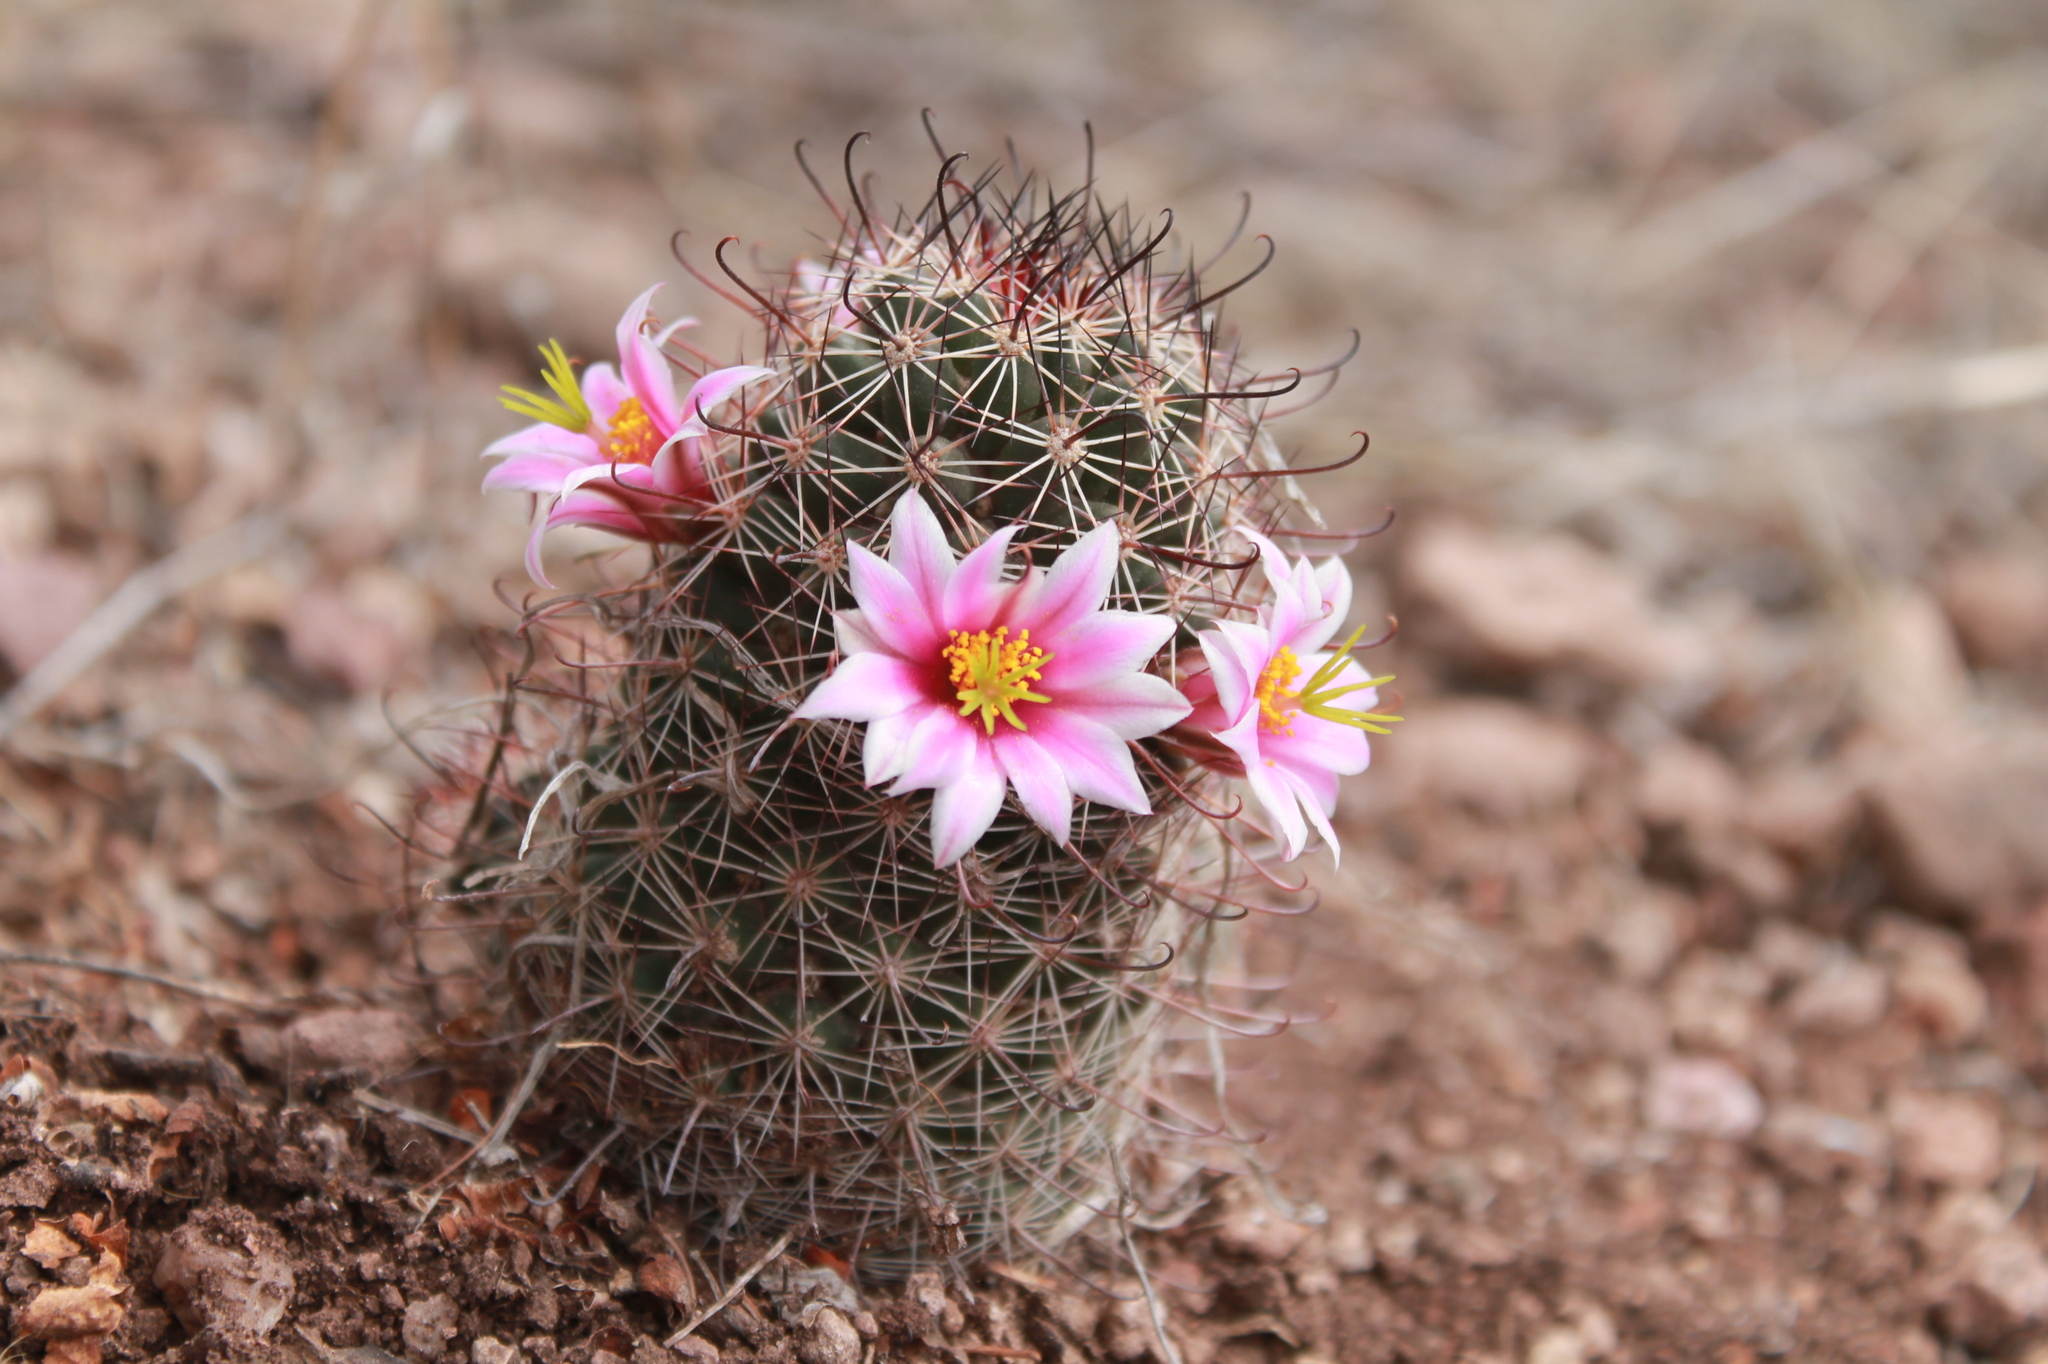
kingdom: Plantae
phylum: Tracheophyta
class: Magnoliopsida
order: Caryophyllales
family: Cactaceae
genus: Cochemiea
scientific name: Cochemiea sheldonii
